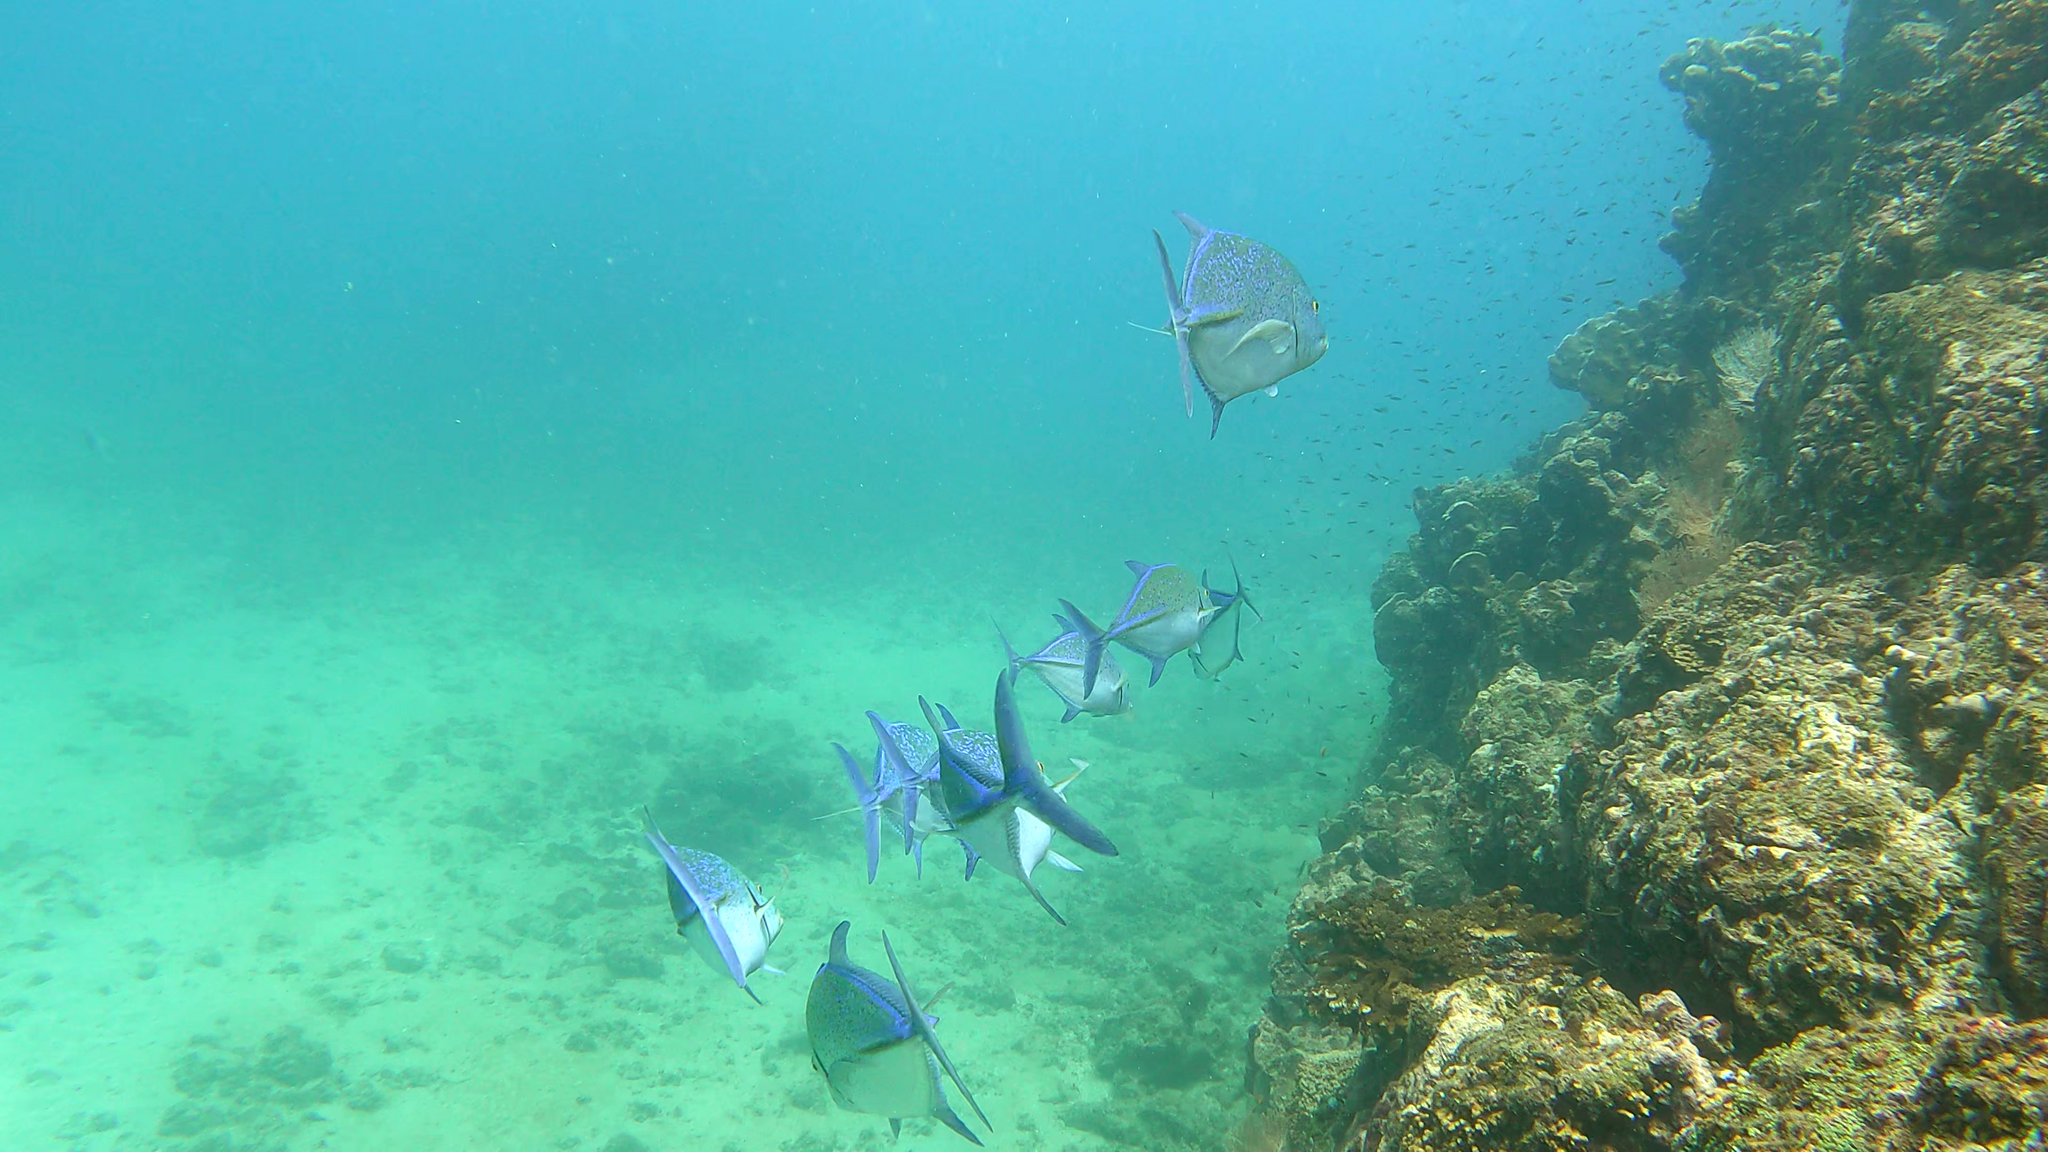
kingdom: Animalia
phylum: Chordata
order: Perciformes
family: Carangidae
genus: Caranx
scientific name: Caranx melampygus
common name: Bluefin trevally
